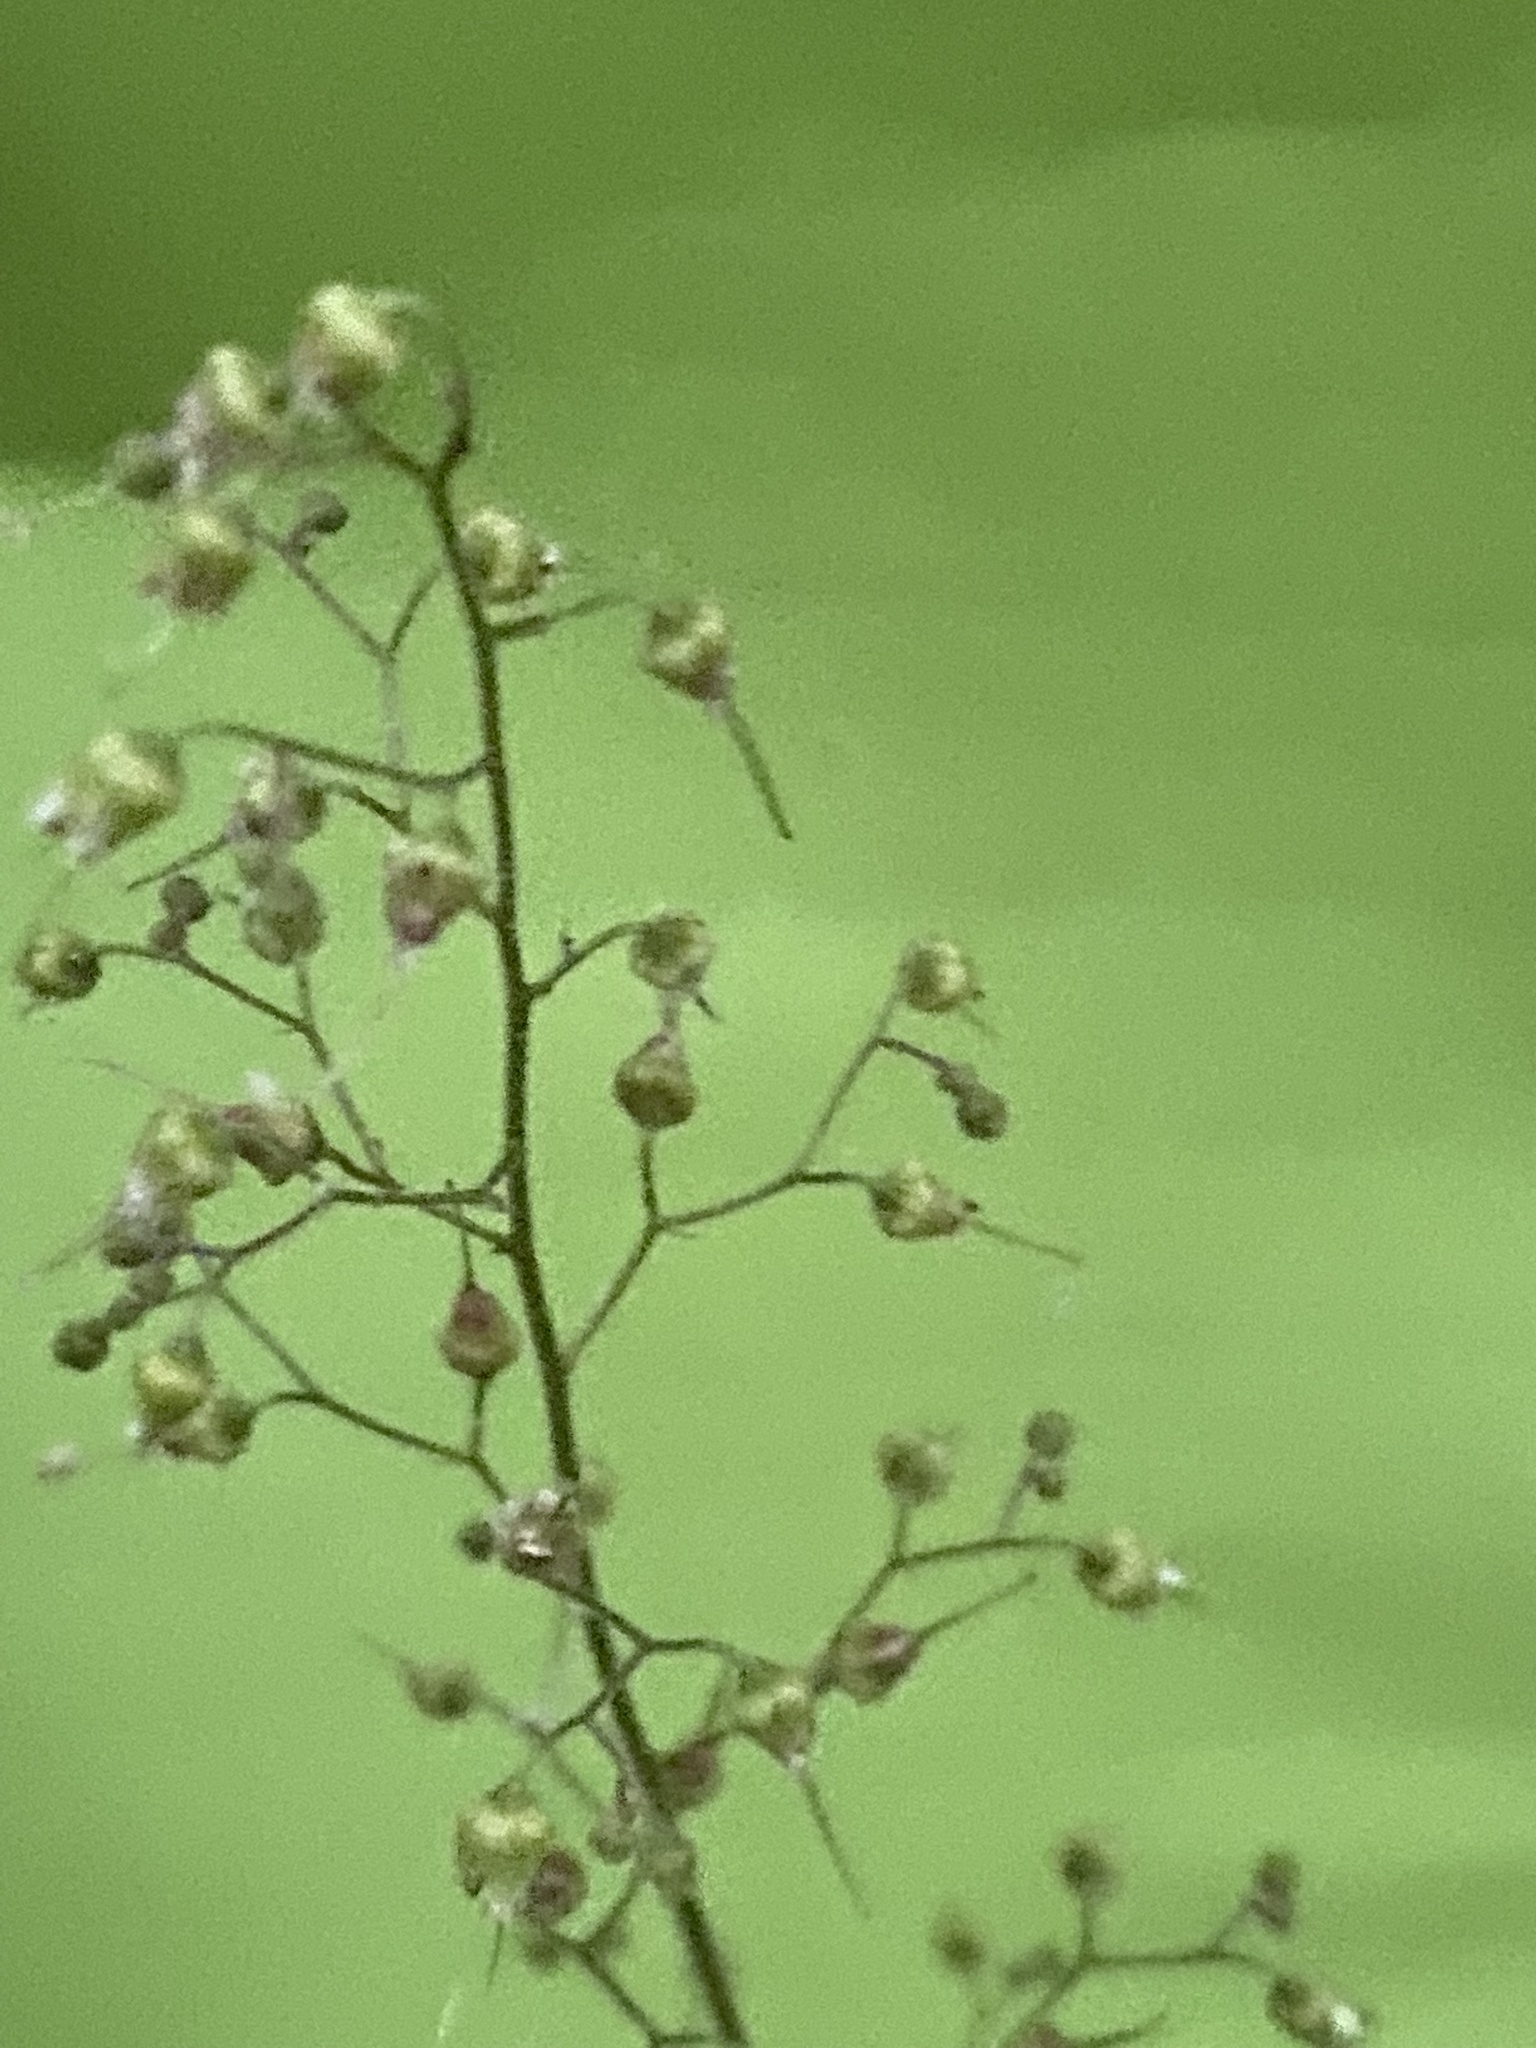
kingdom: Plantae
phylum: Tracheophyta
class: Magnoliopsida
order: Saxifragales
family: Saxifragaceae
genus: Heuchera
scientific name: Heuchera americana
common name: Alumroot
